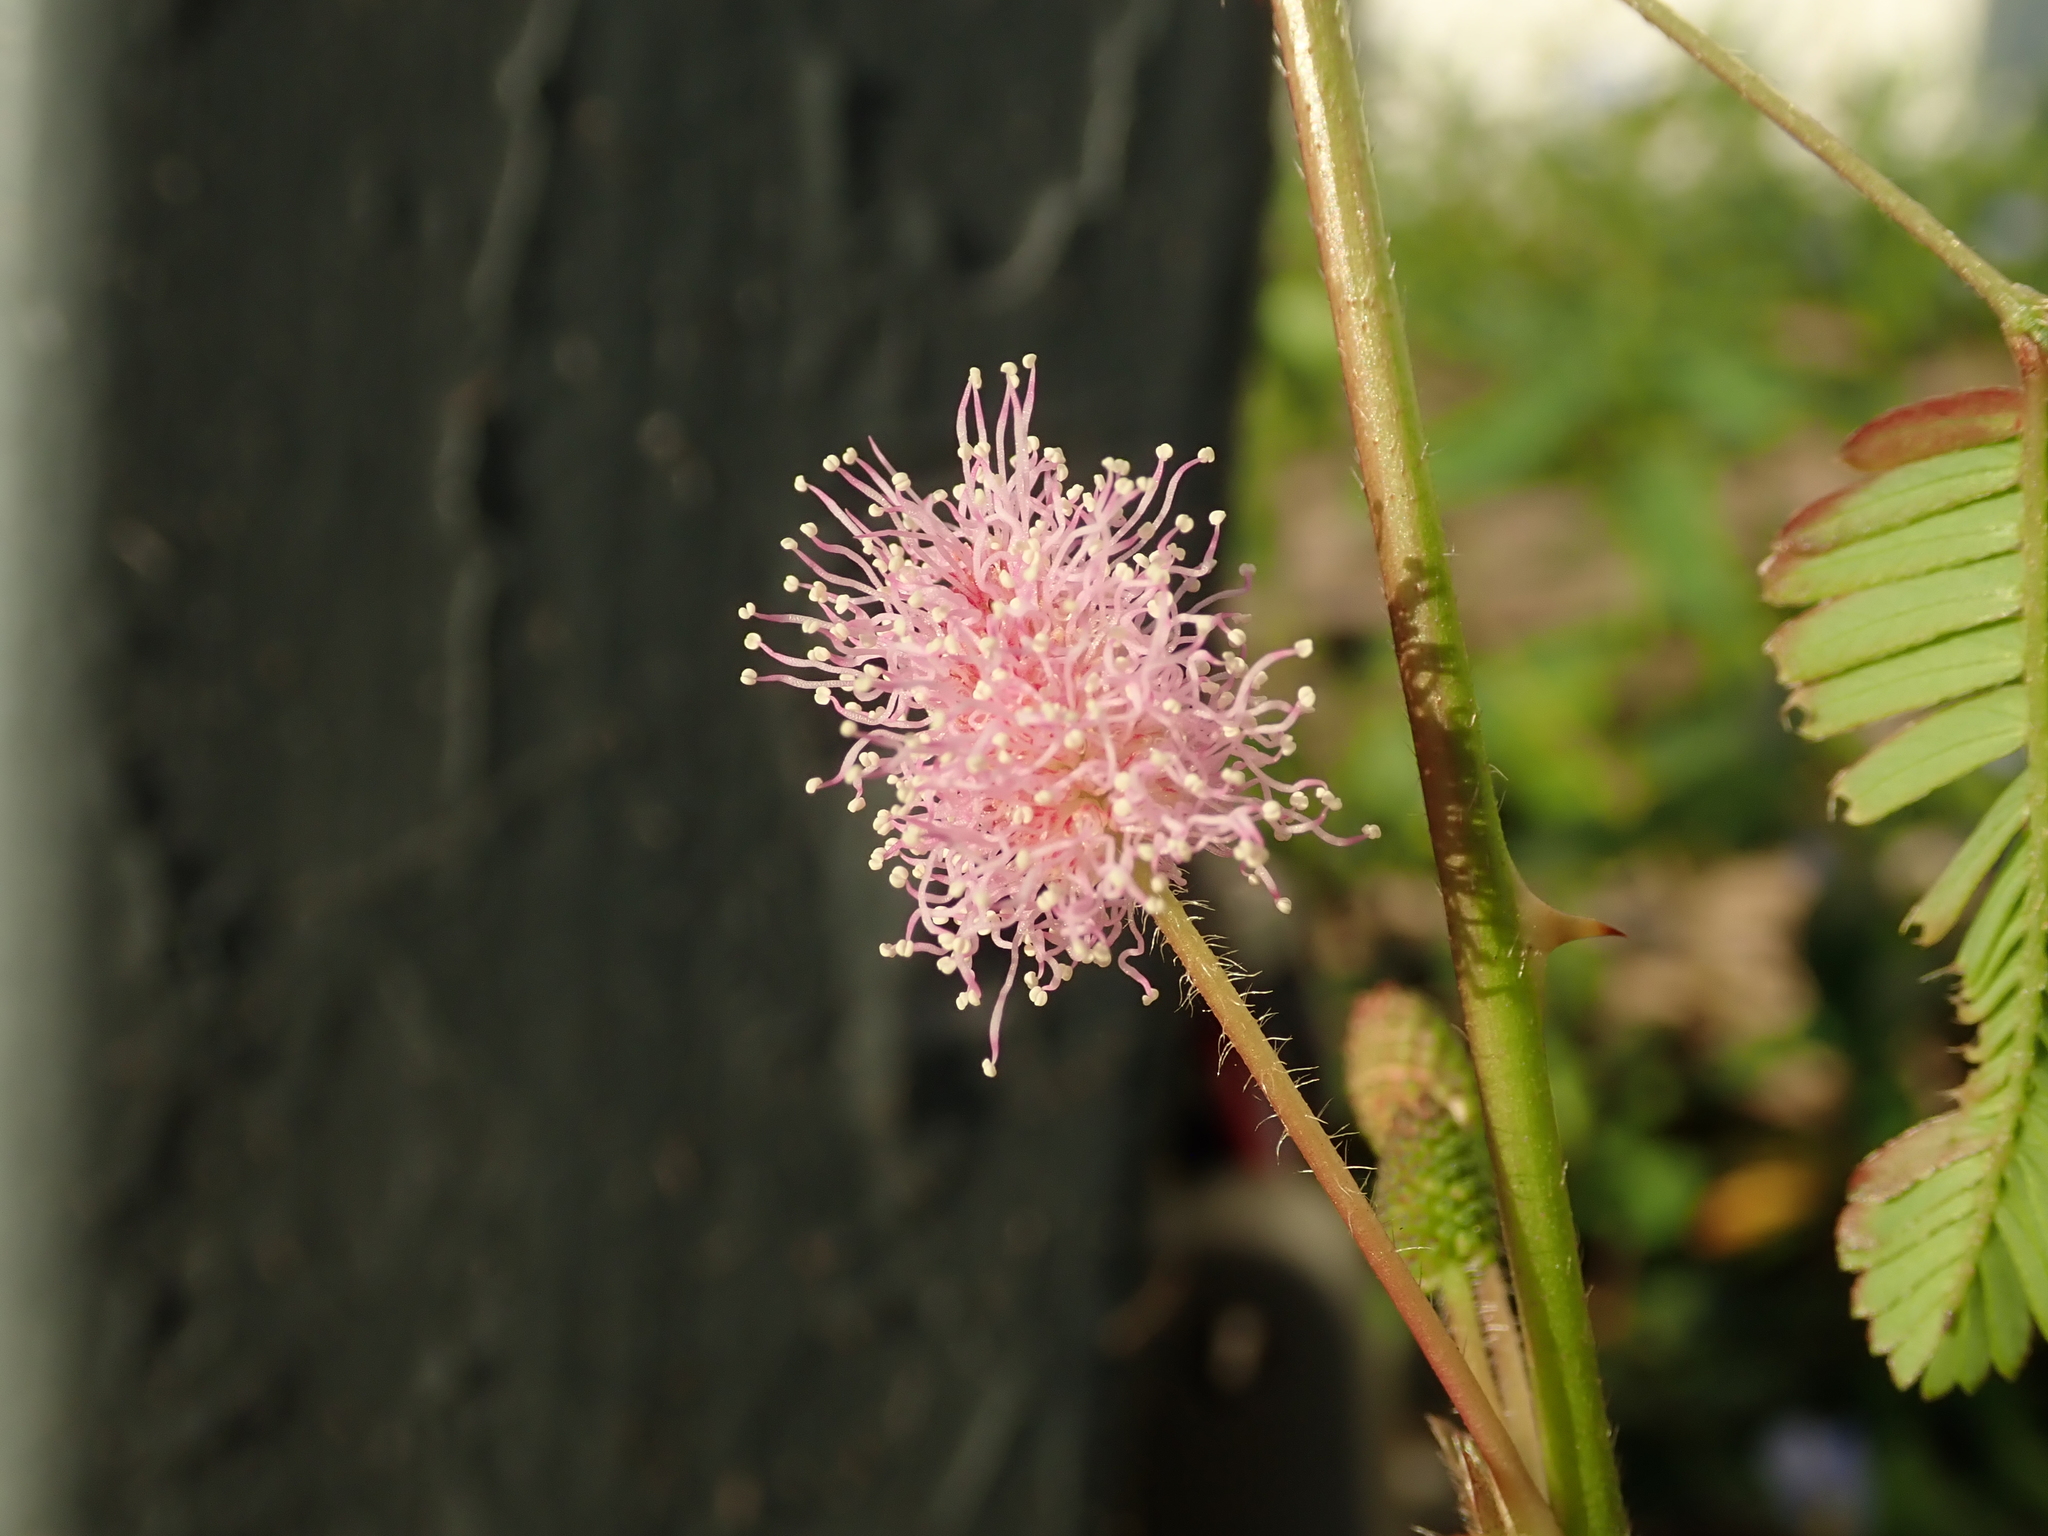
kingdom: Plantae
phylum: Tracheophyta
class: Magnoliopsida
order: Fabales
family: Fabaceae
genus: Mimosa
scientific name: Mimosa pudica
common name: Sensitive plant
